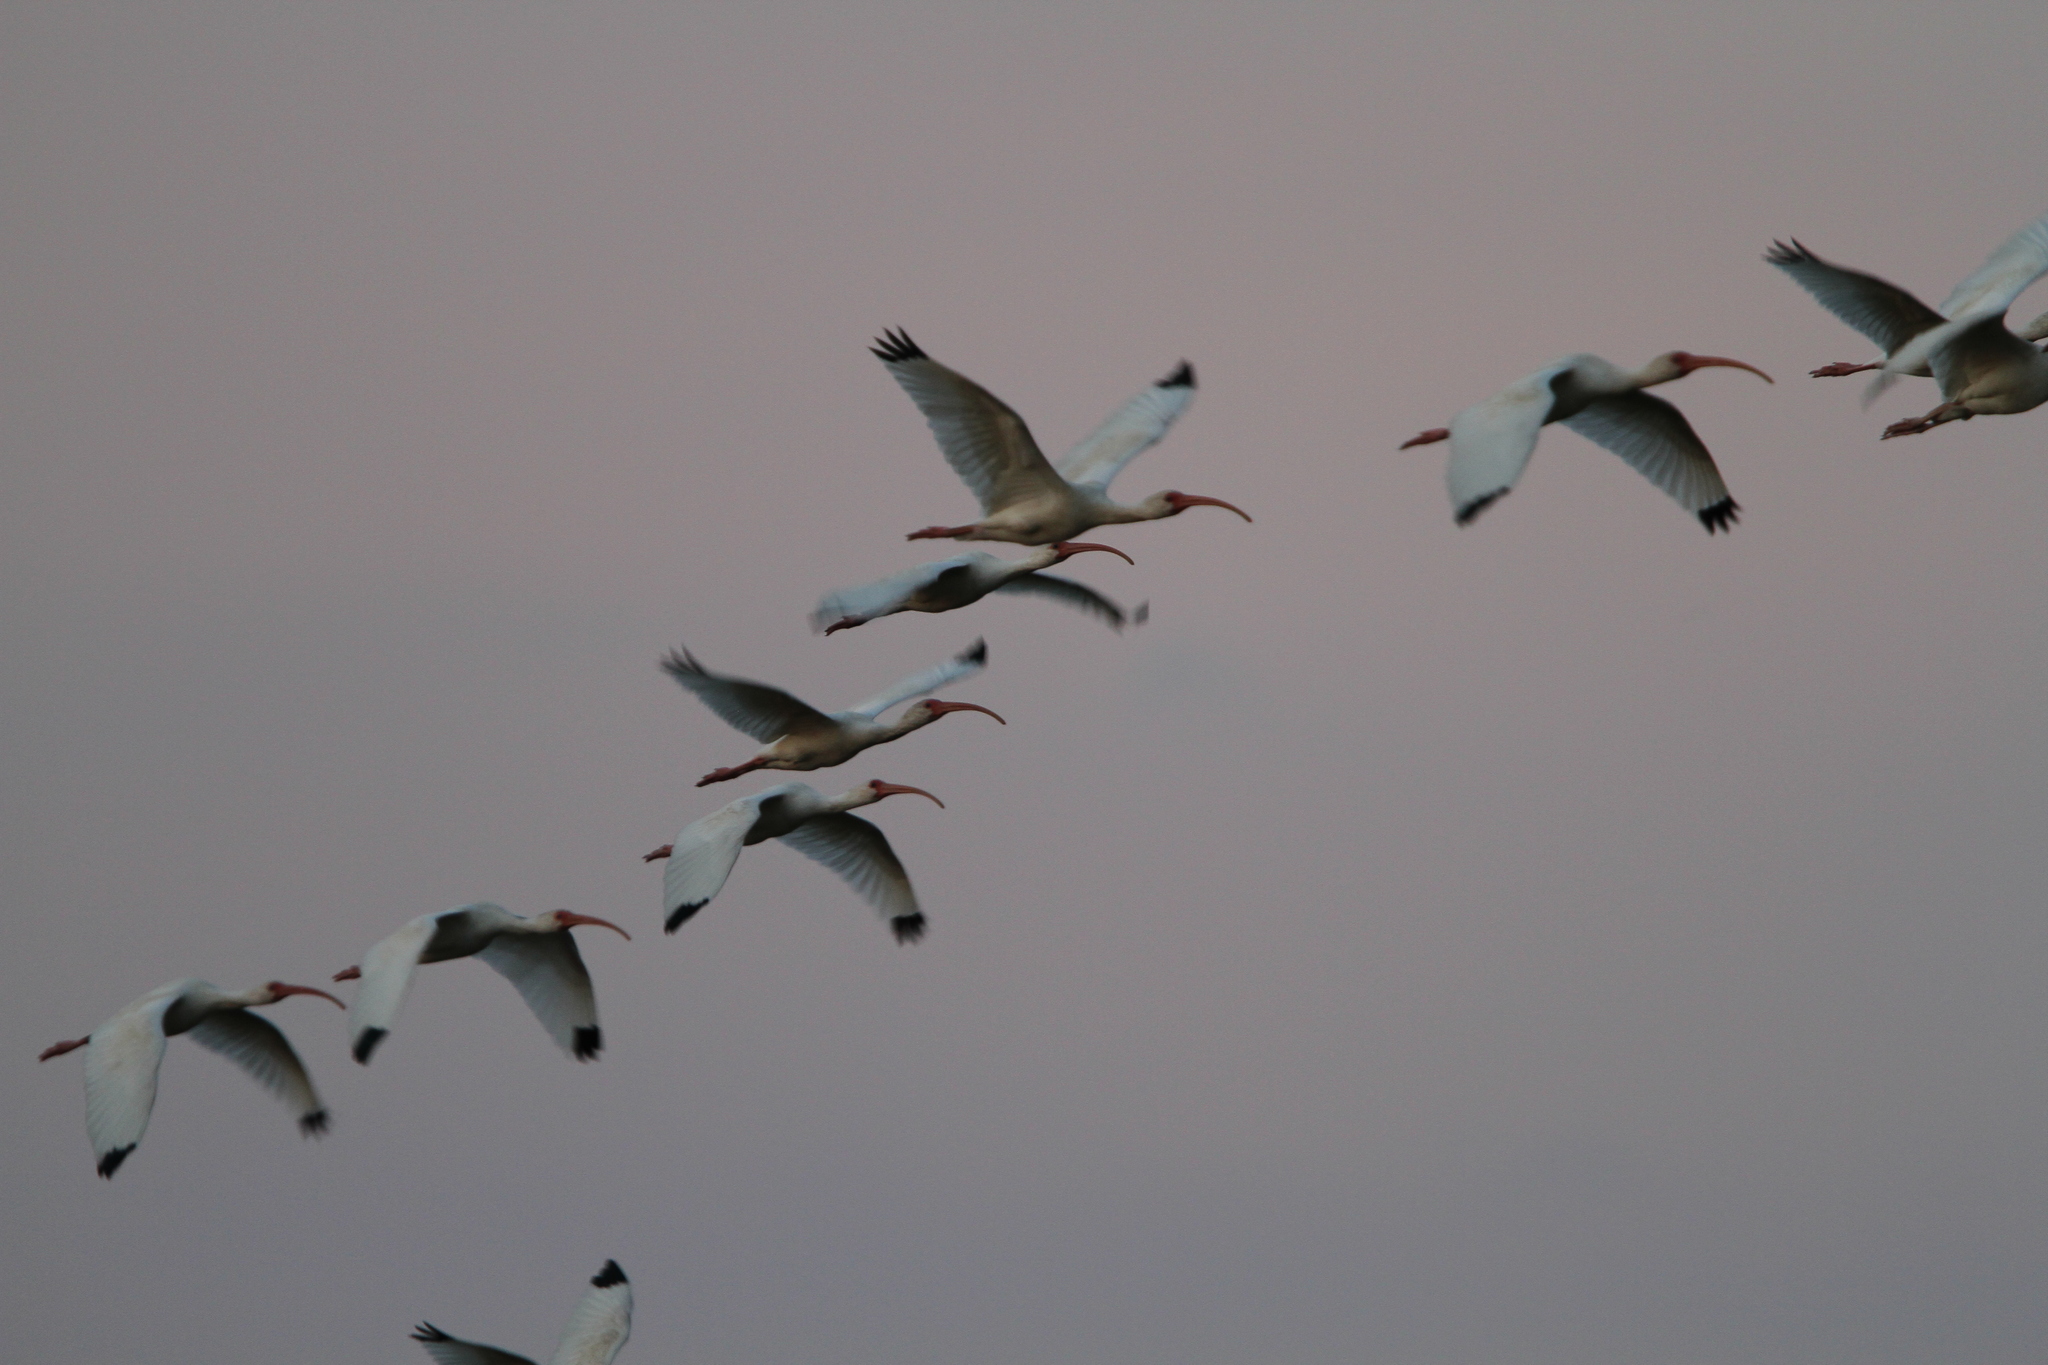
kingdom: Animalia
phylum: Chordata
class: Aves
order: Pelecaniformes
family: Threskiornithidae
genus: Eudocimus
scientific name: Eudocimus albus
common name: White ibis
